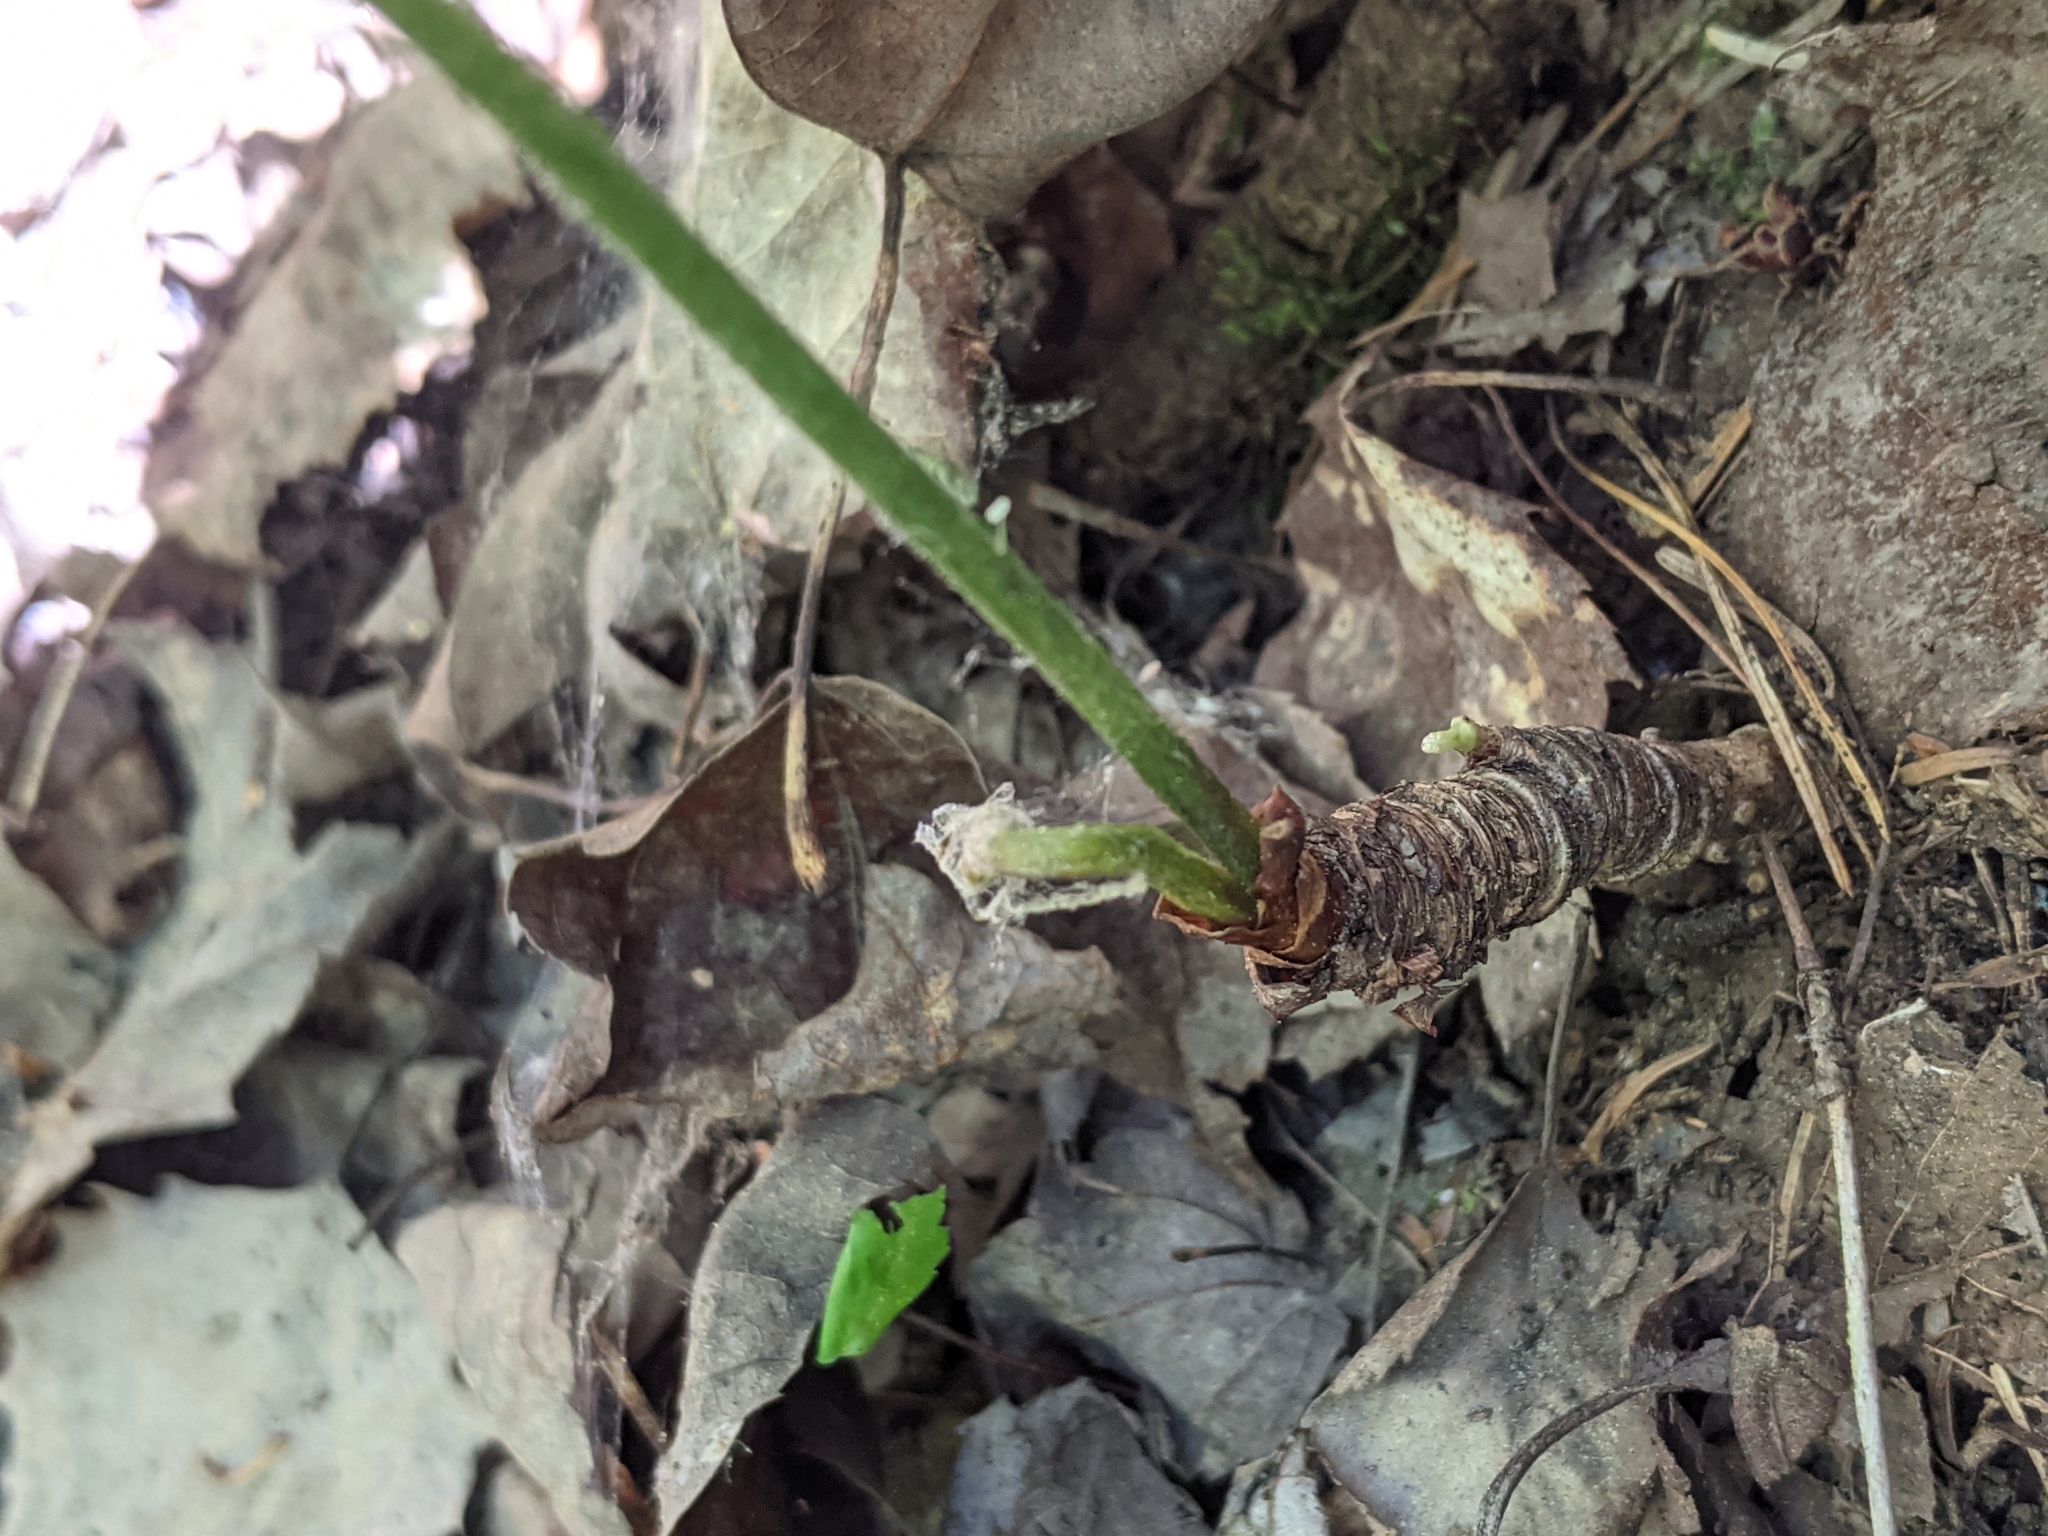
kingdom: Plantae
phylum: Tracheophyta
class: Magnoliopsida
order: Apiales
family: Araliaceae
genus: Aralia
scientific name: Aralia nudicaulis
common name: Wild sarsaparilla
